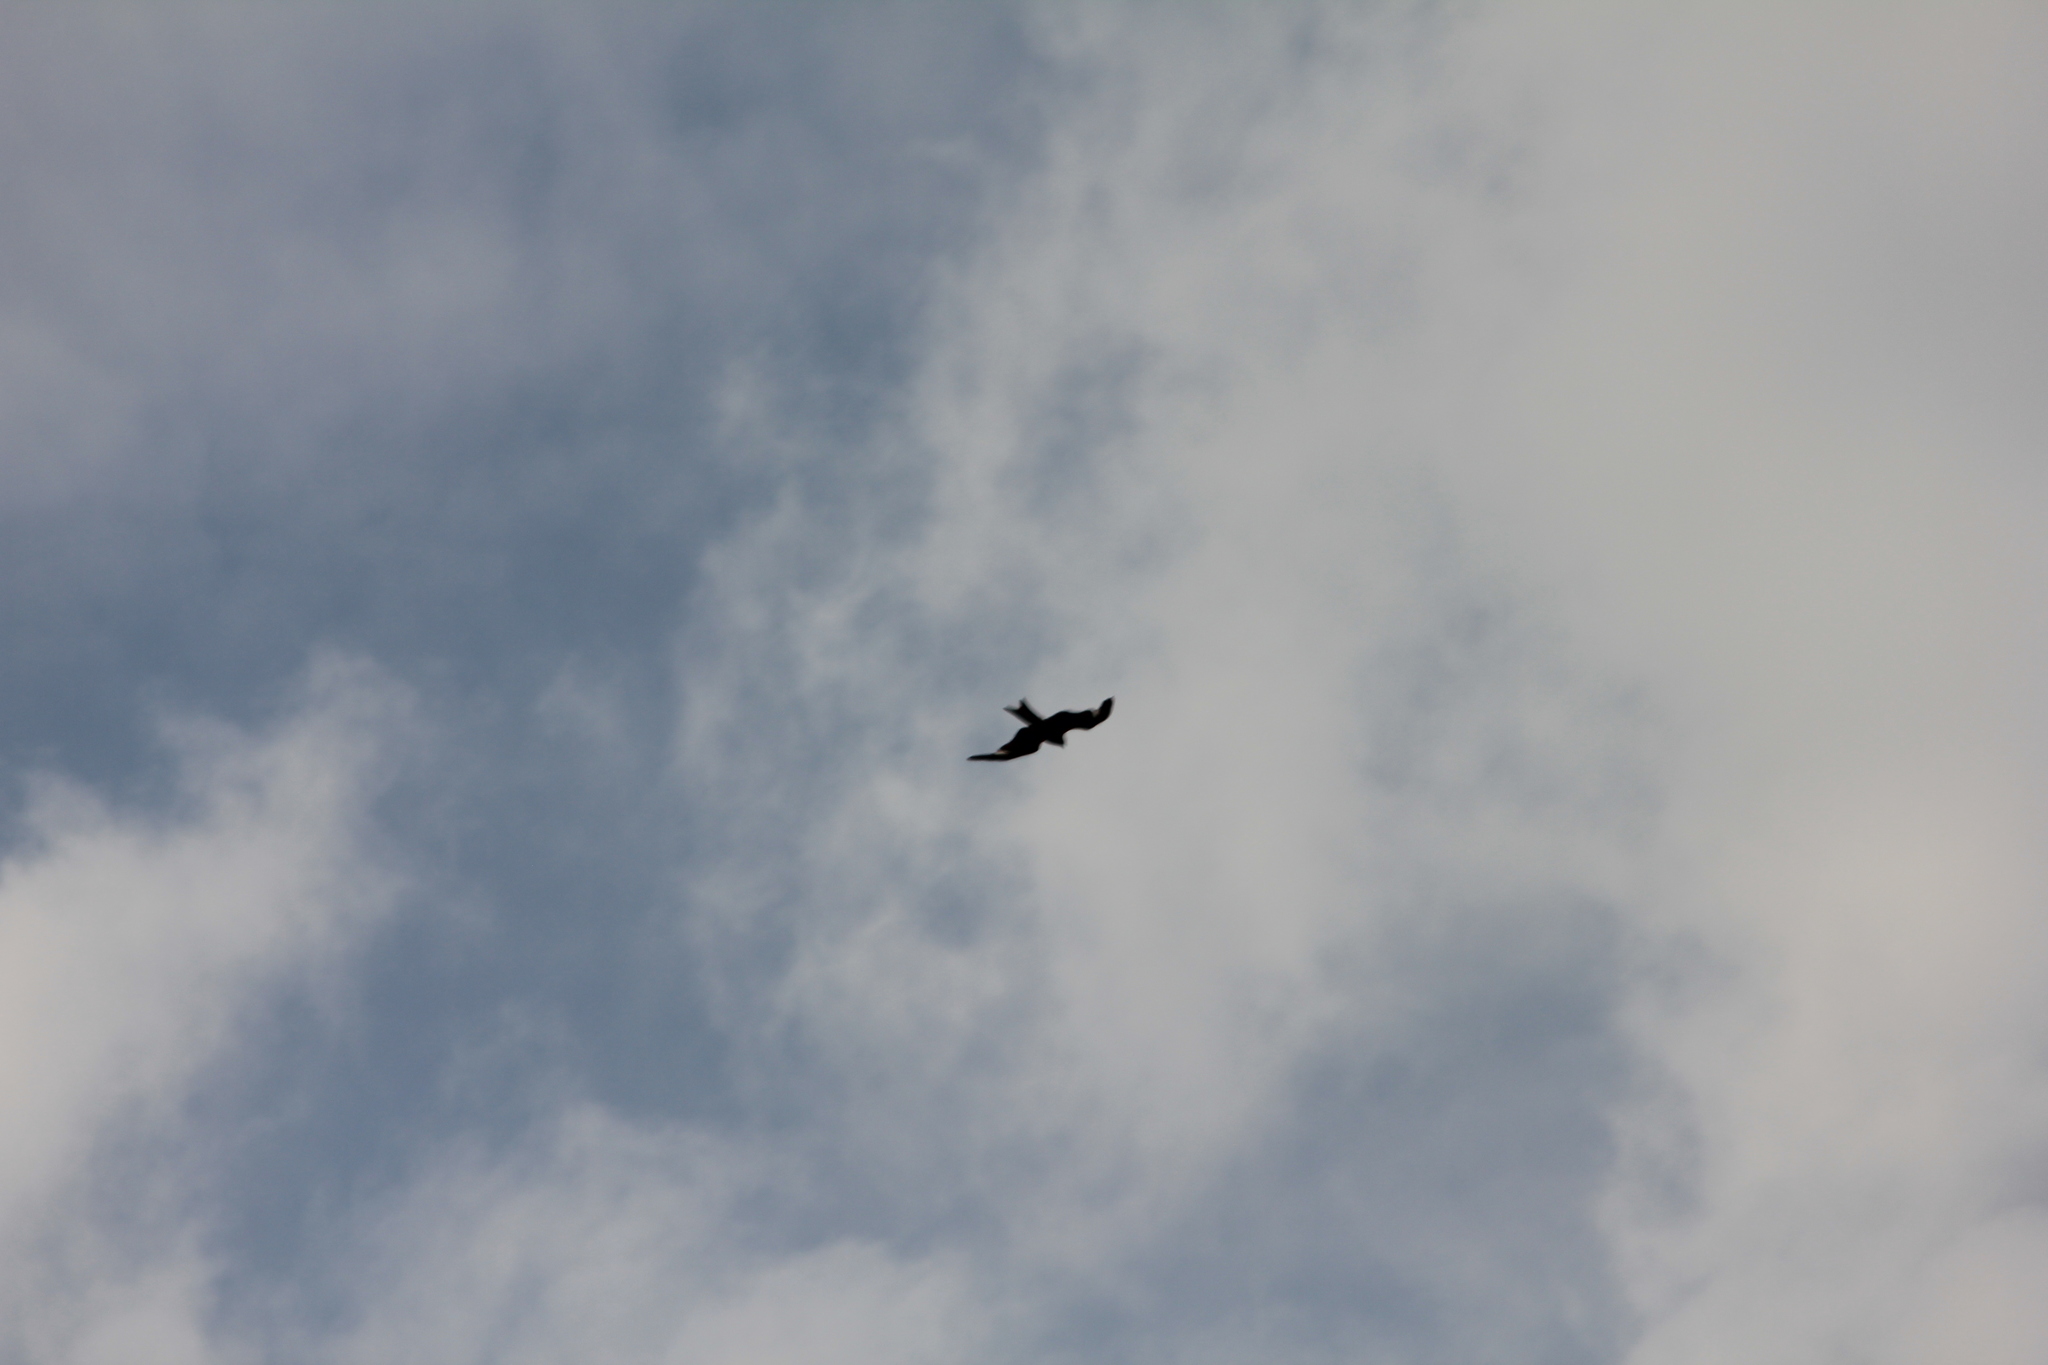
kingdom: Animalia
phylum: Chordata
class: Aves
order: Accipitriformes
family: Accipitridae
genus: Milvus
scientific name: Milvus milvus
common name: Red kite
